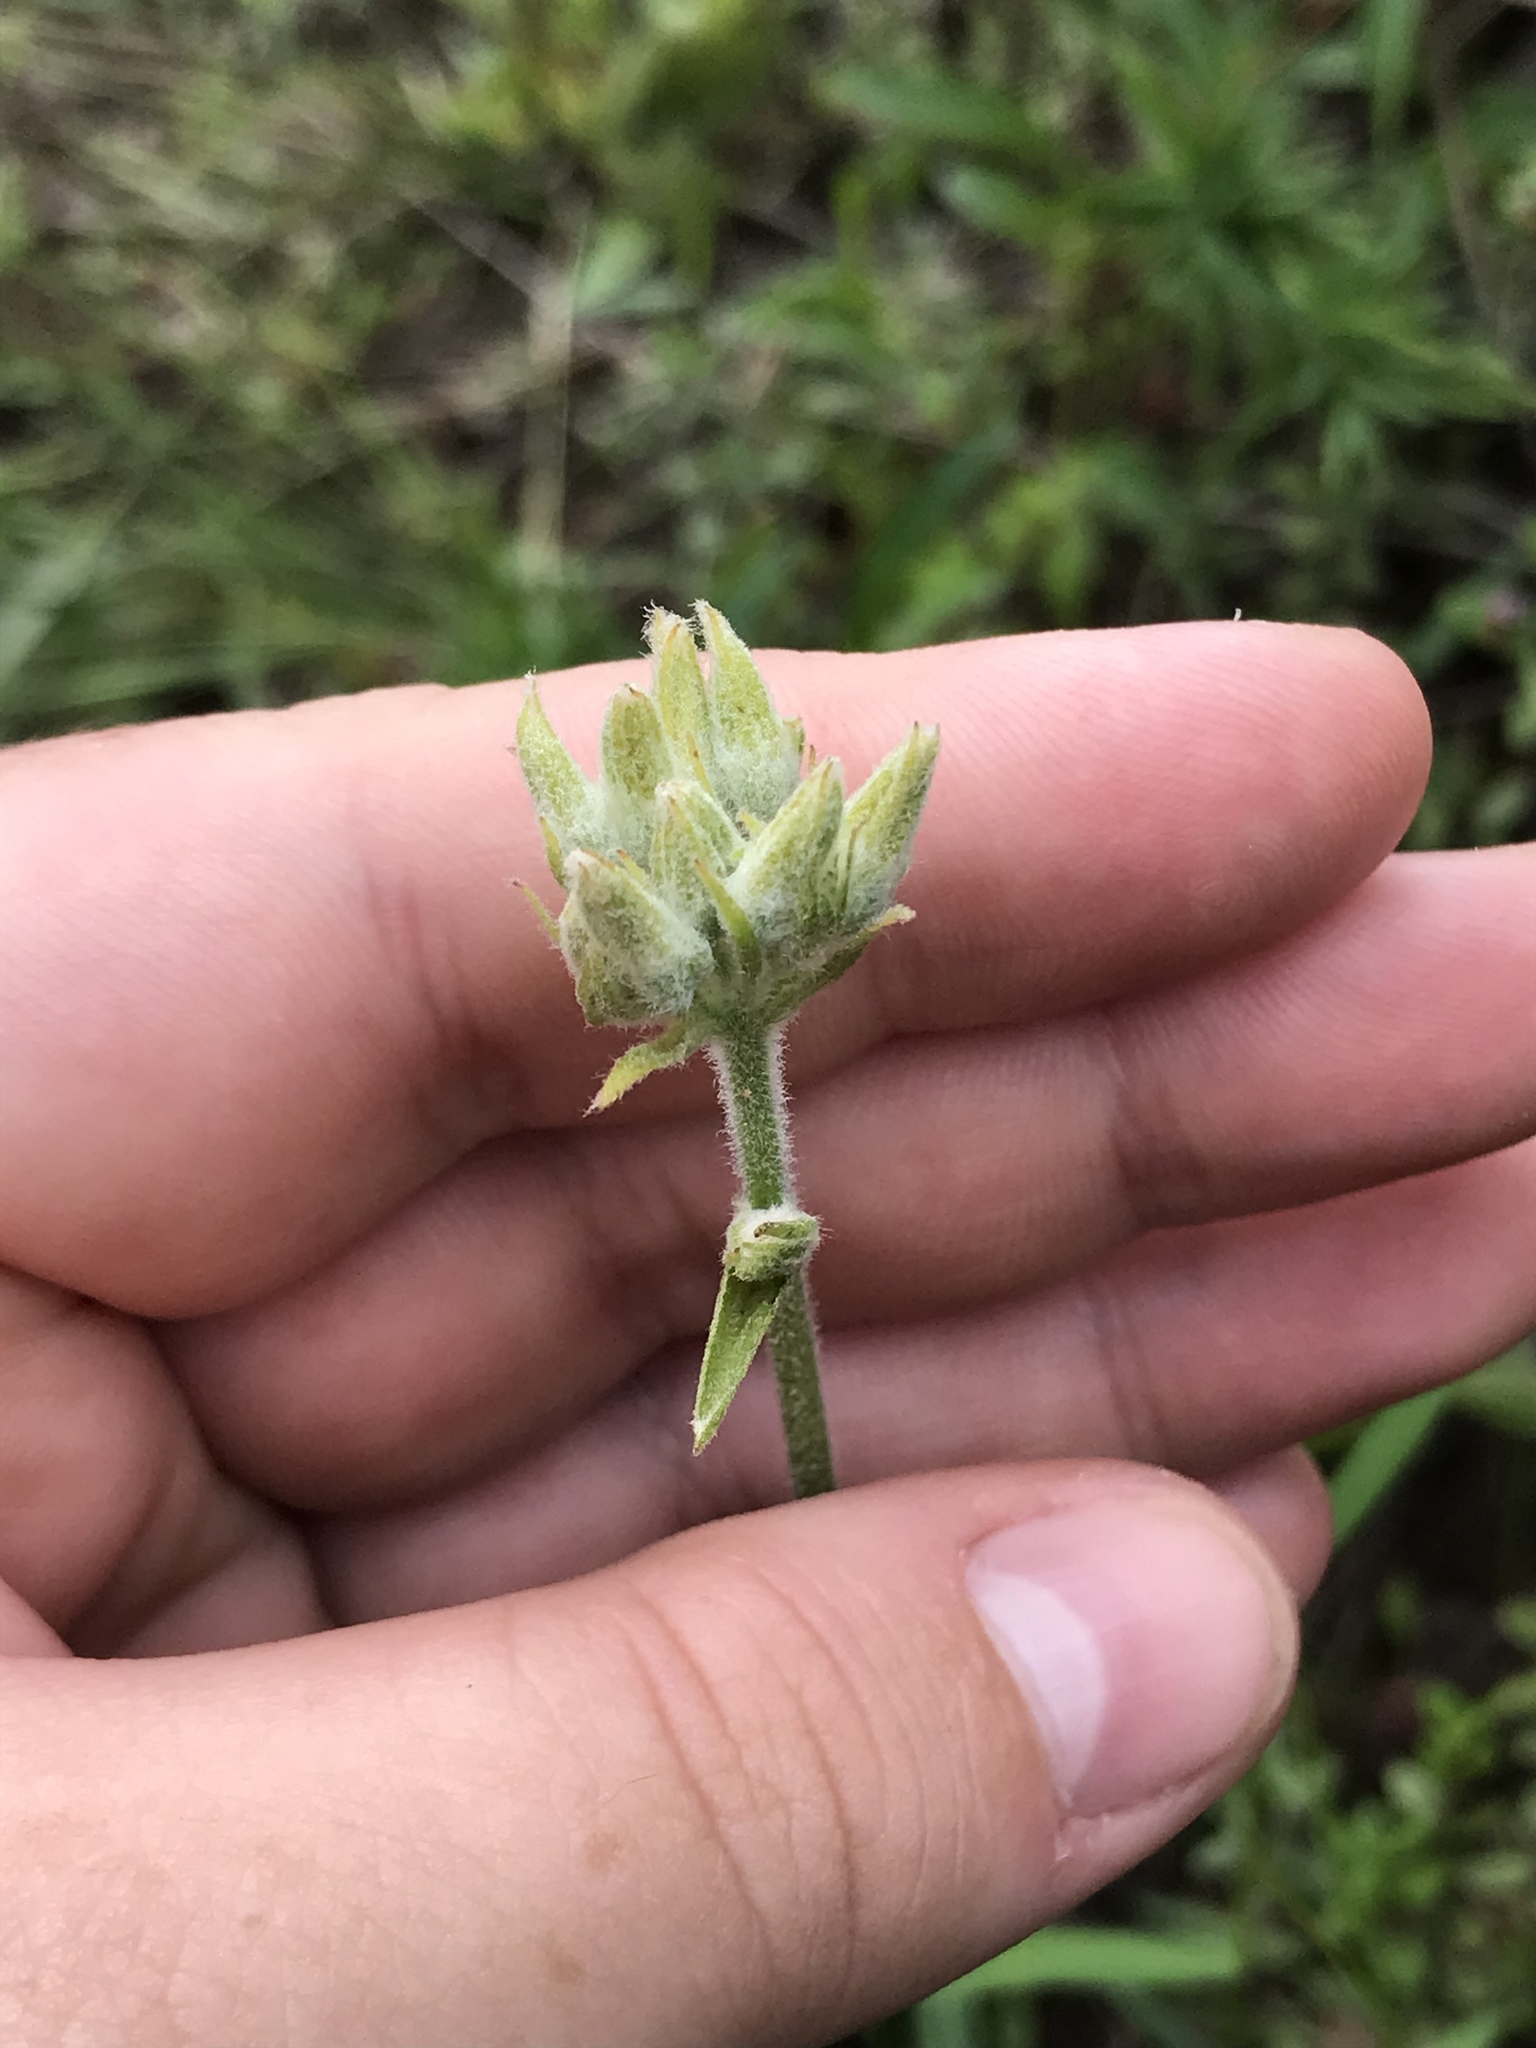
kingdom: Plantae
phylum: Tracheophyta
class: Liliopsida
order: Commelinales
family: Haemodoraceae
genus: Lachnanthes
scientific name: Lachnanthes caroliana
